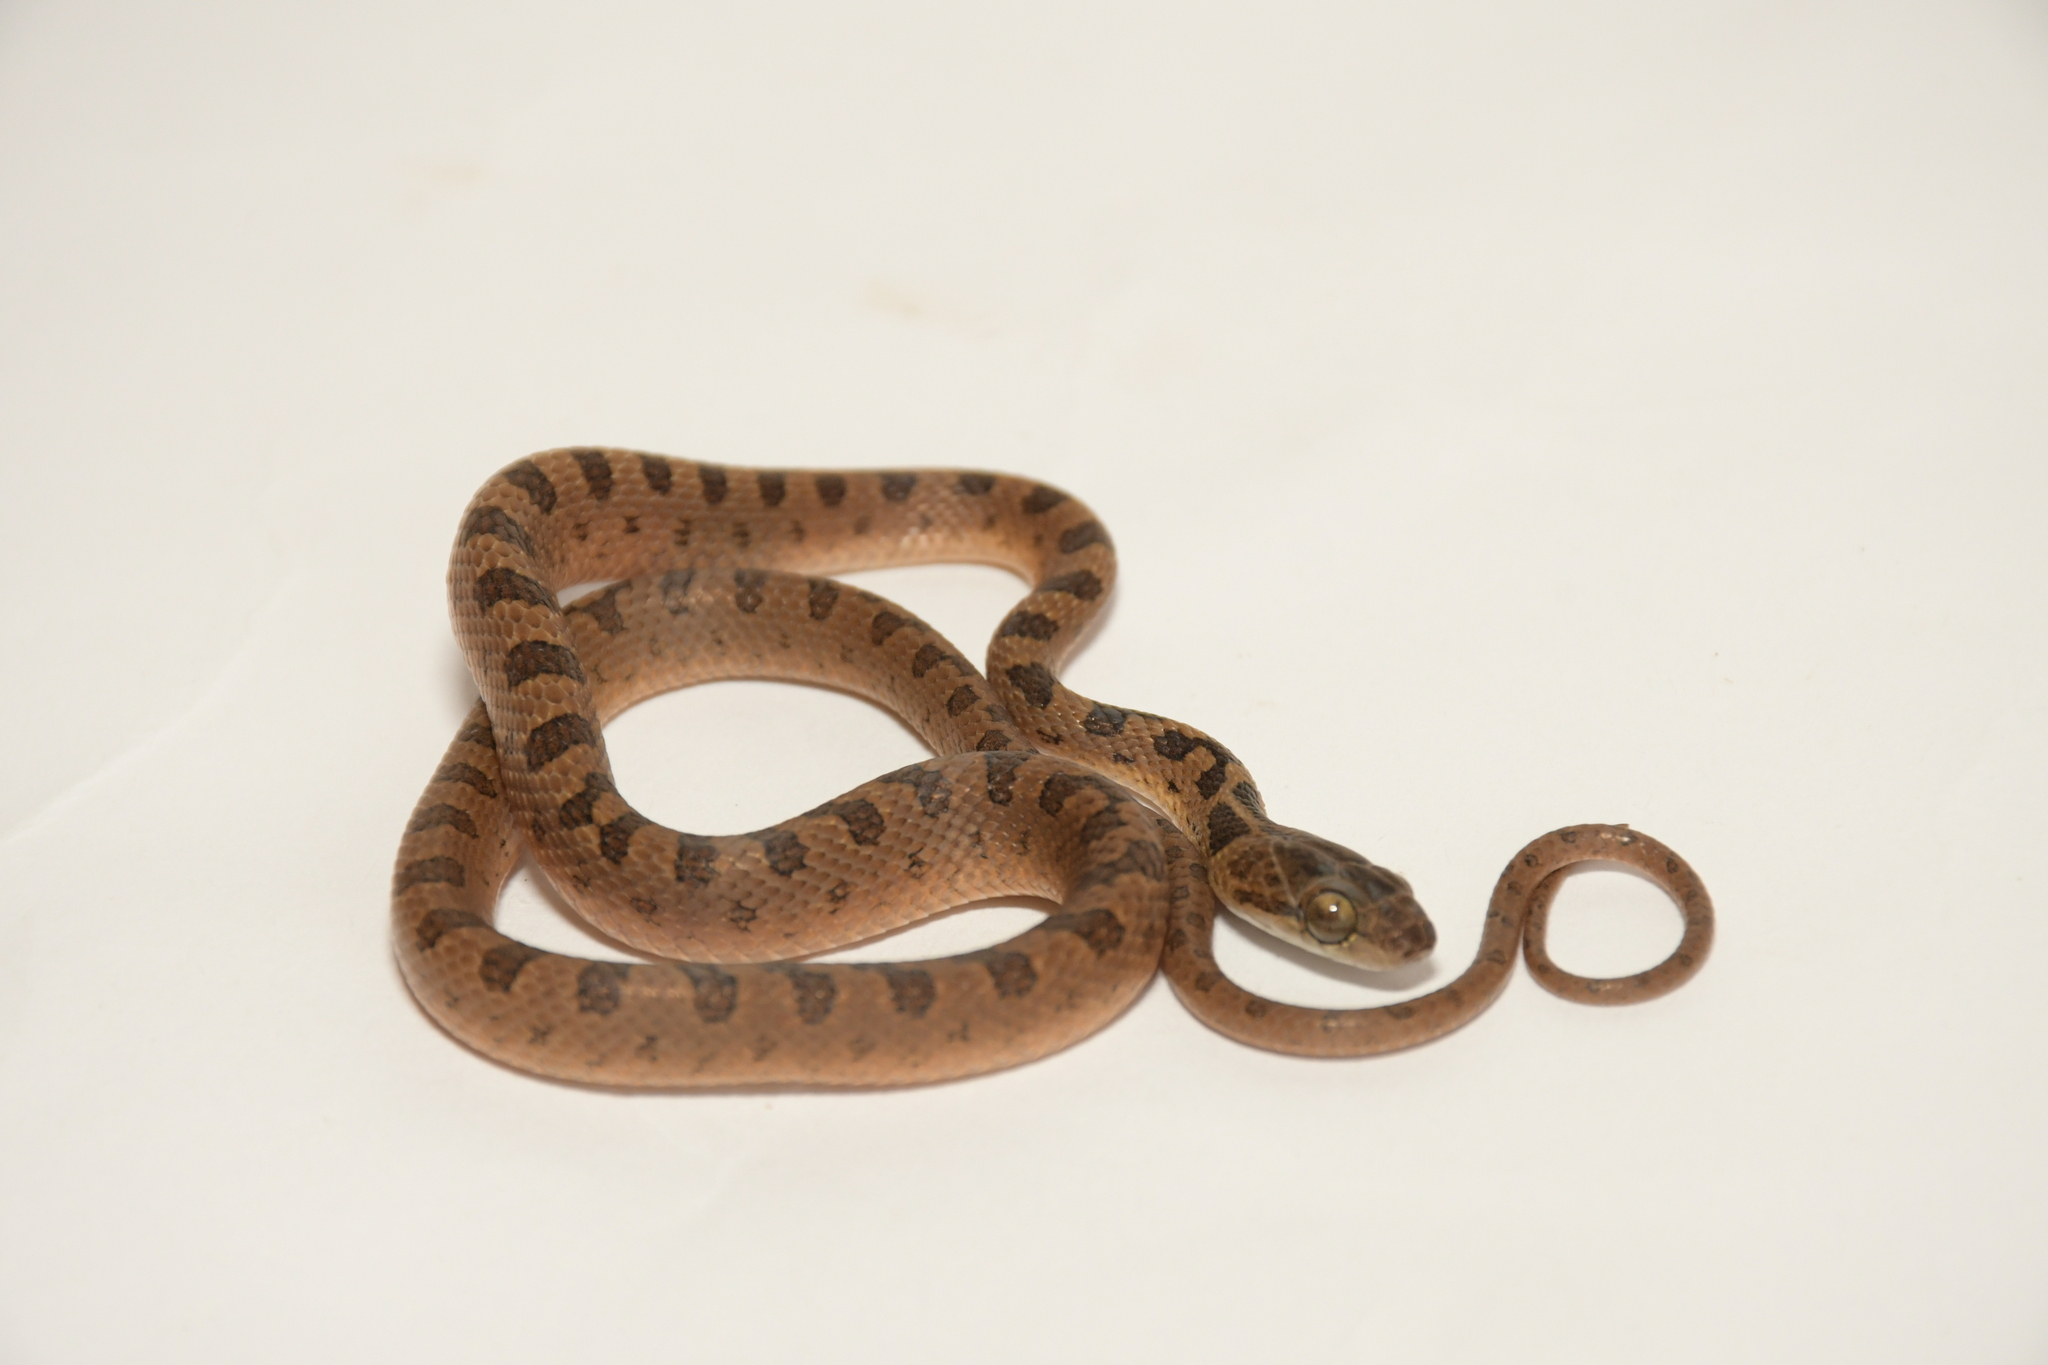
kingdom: Animalia
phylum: Chordata
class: Squamata
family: Colubridae
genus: Leptodeira
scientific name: Leptodeira septentrionalis
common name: Northern cat-eyed snake
